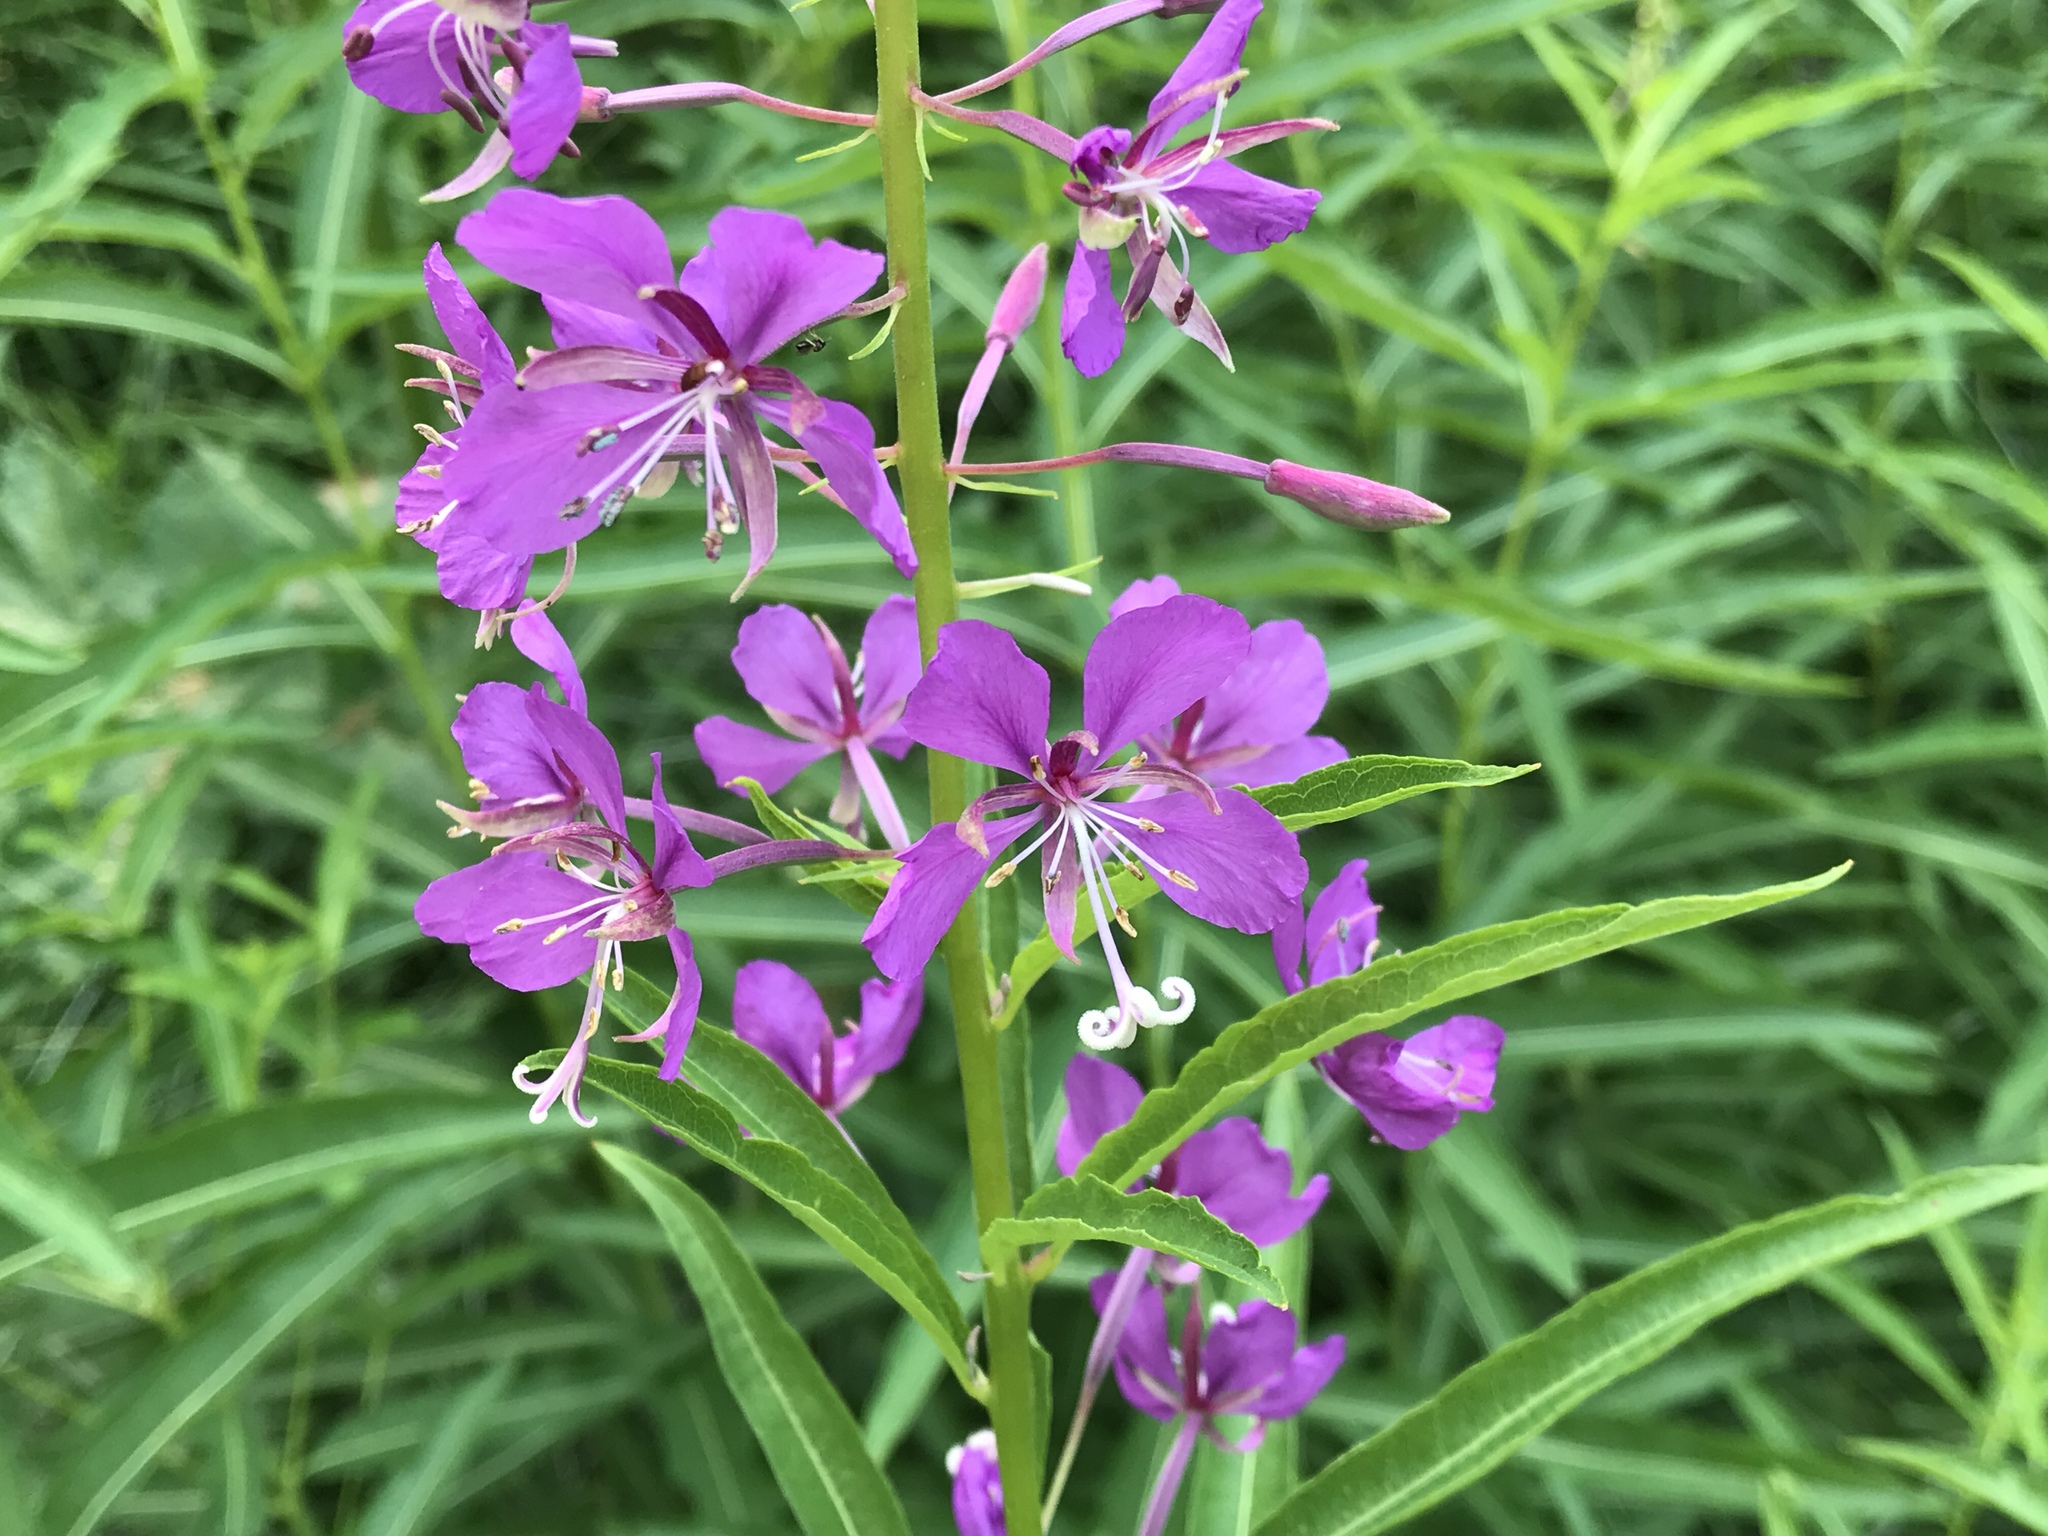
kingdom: Plantae
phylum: Tracheophyta
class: Magnoliopsida
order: Myrtales
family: Onagraceae
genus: Chamaenerion
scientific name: Chamaenerion angustifolium
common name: Fireweed
